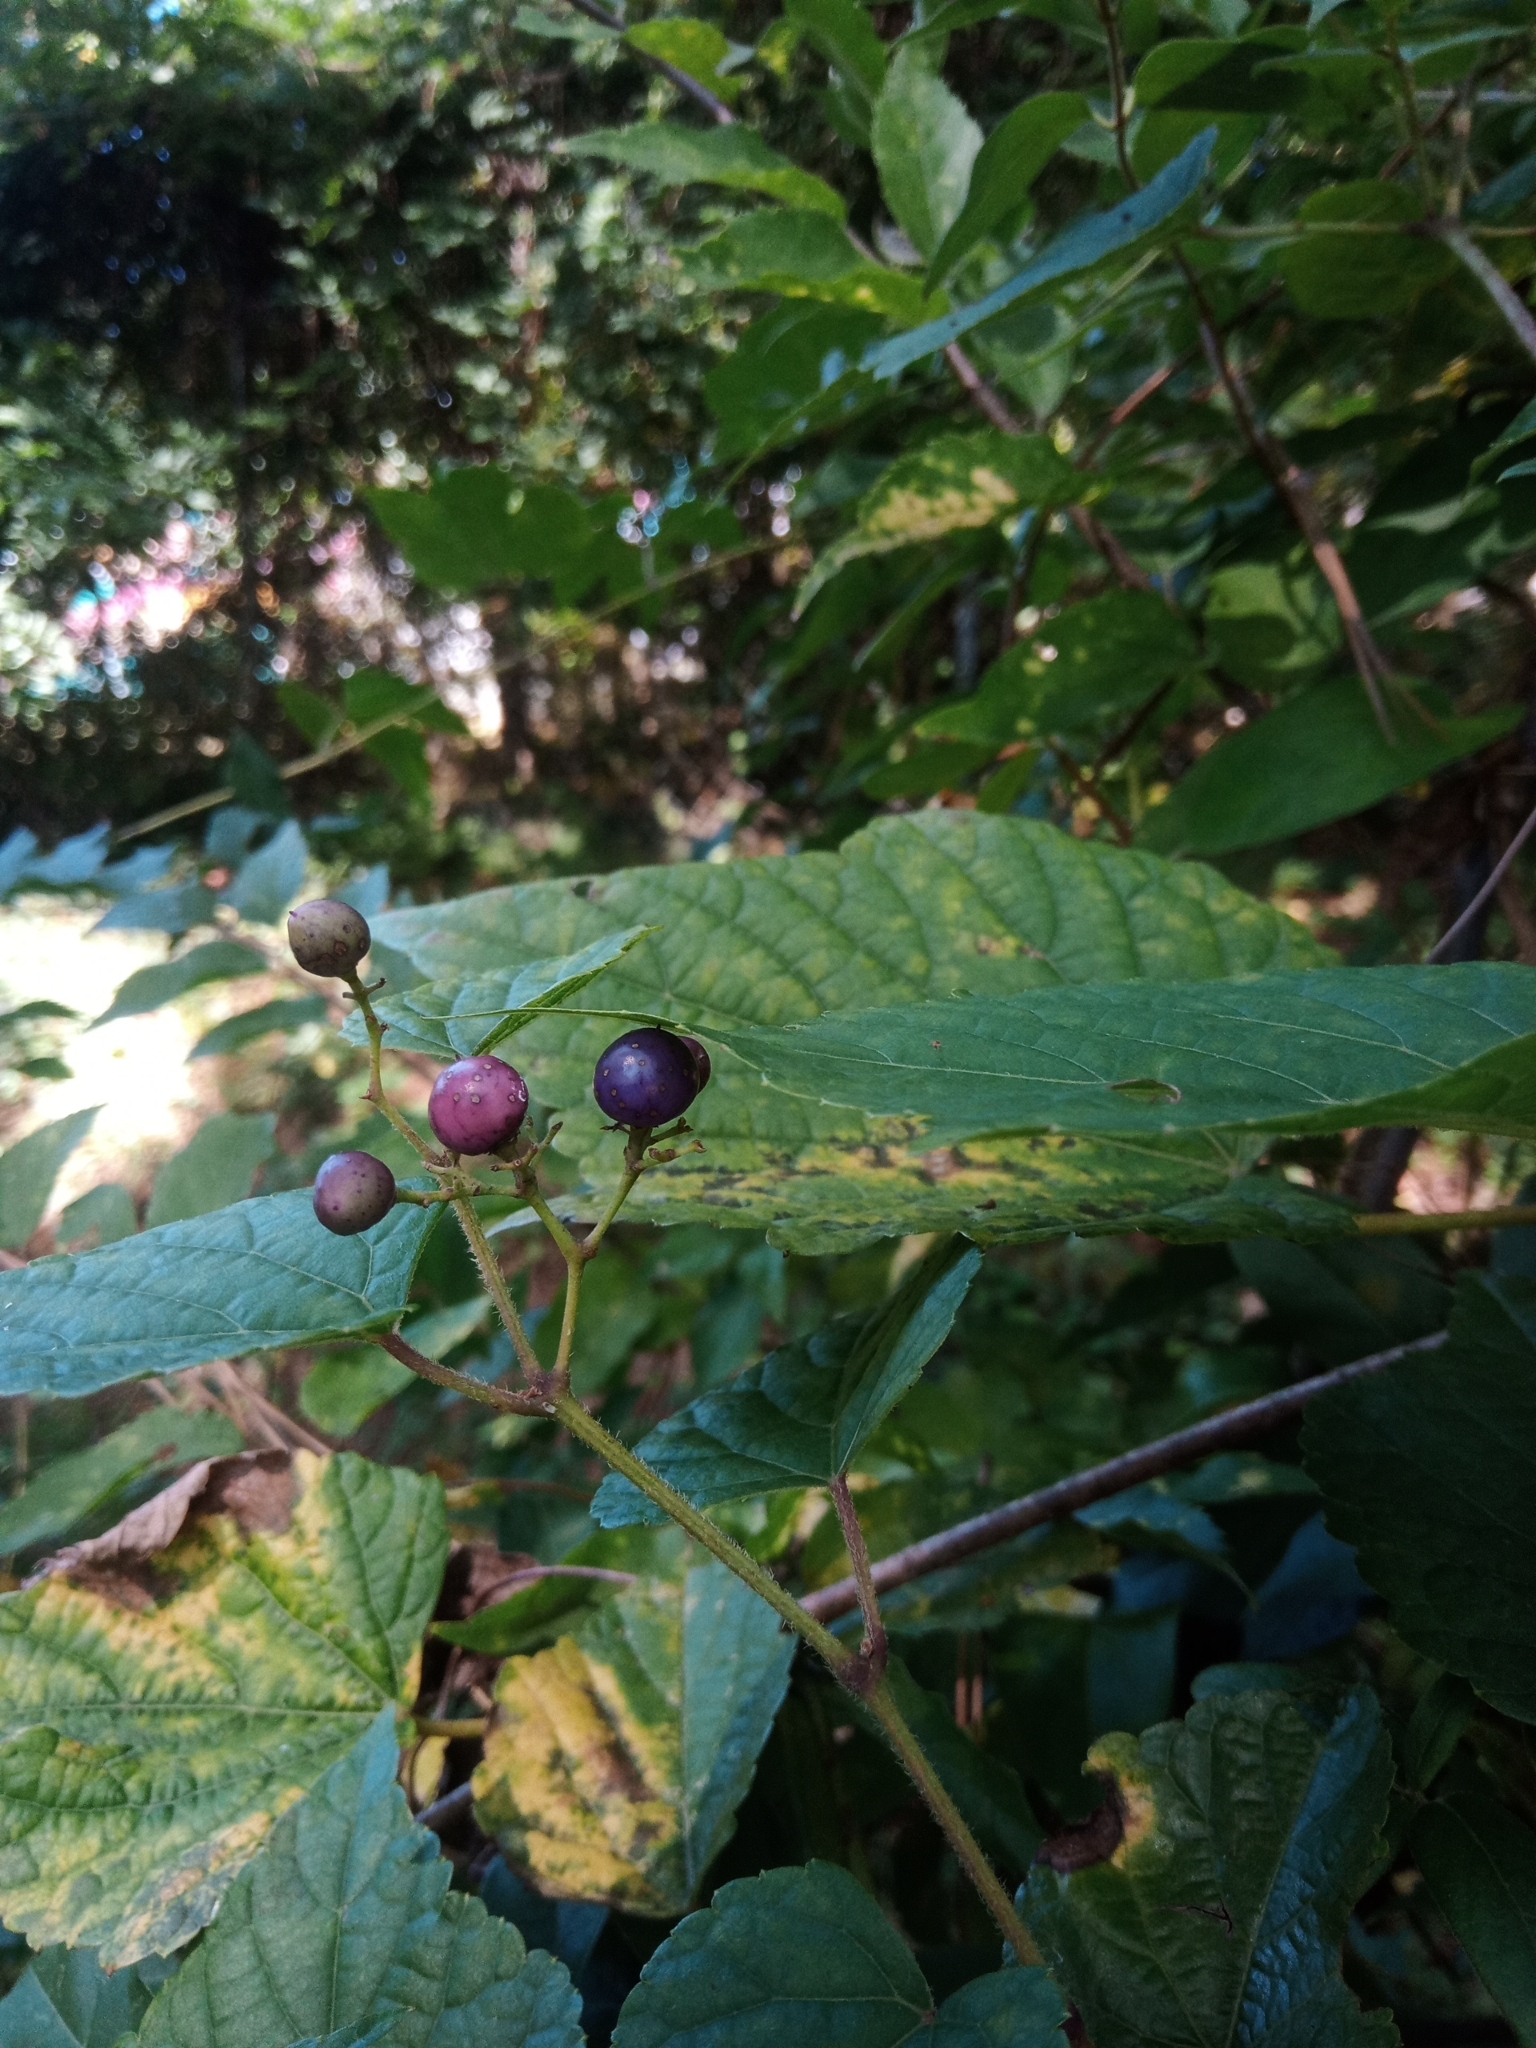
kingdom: Plantae
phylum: Tracheophyta
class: Magnoliopsida
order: Vitales
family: Vitaceae
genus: Ampelopsis
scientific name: Ampelopsis glandulosa
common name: Amur peppervine
